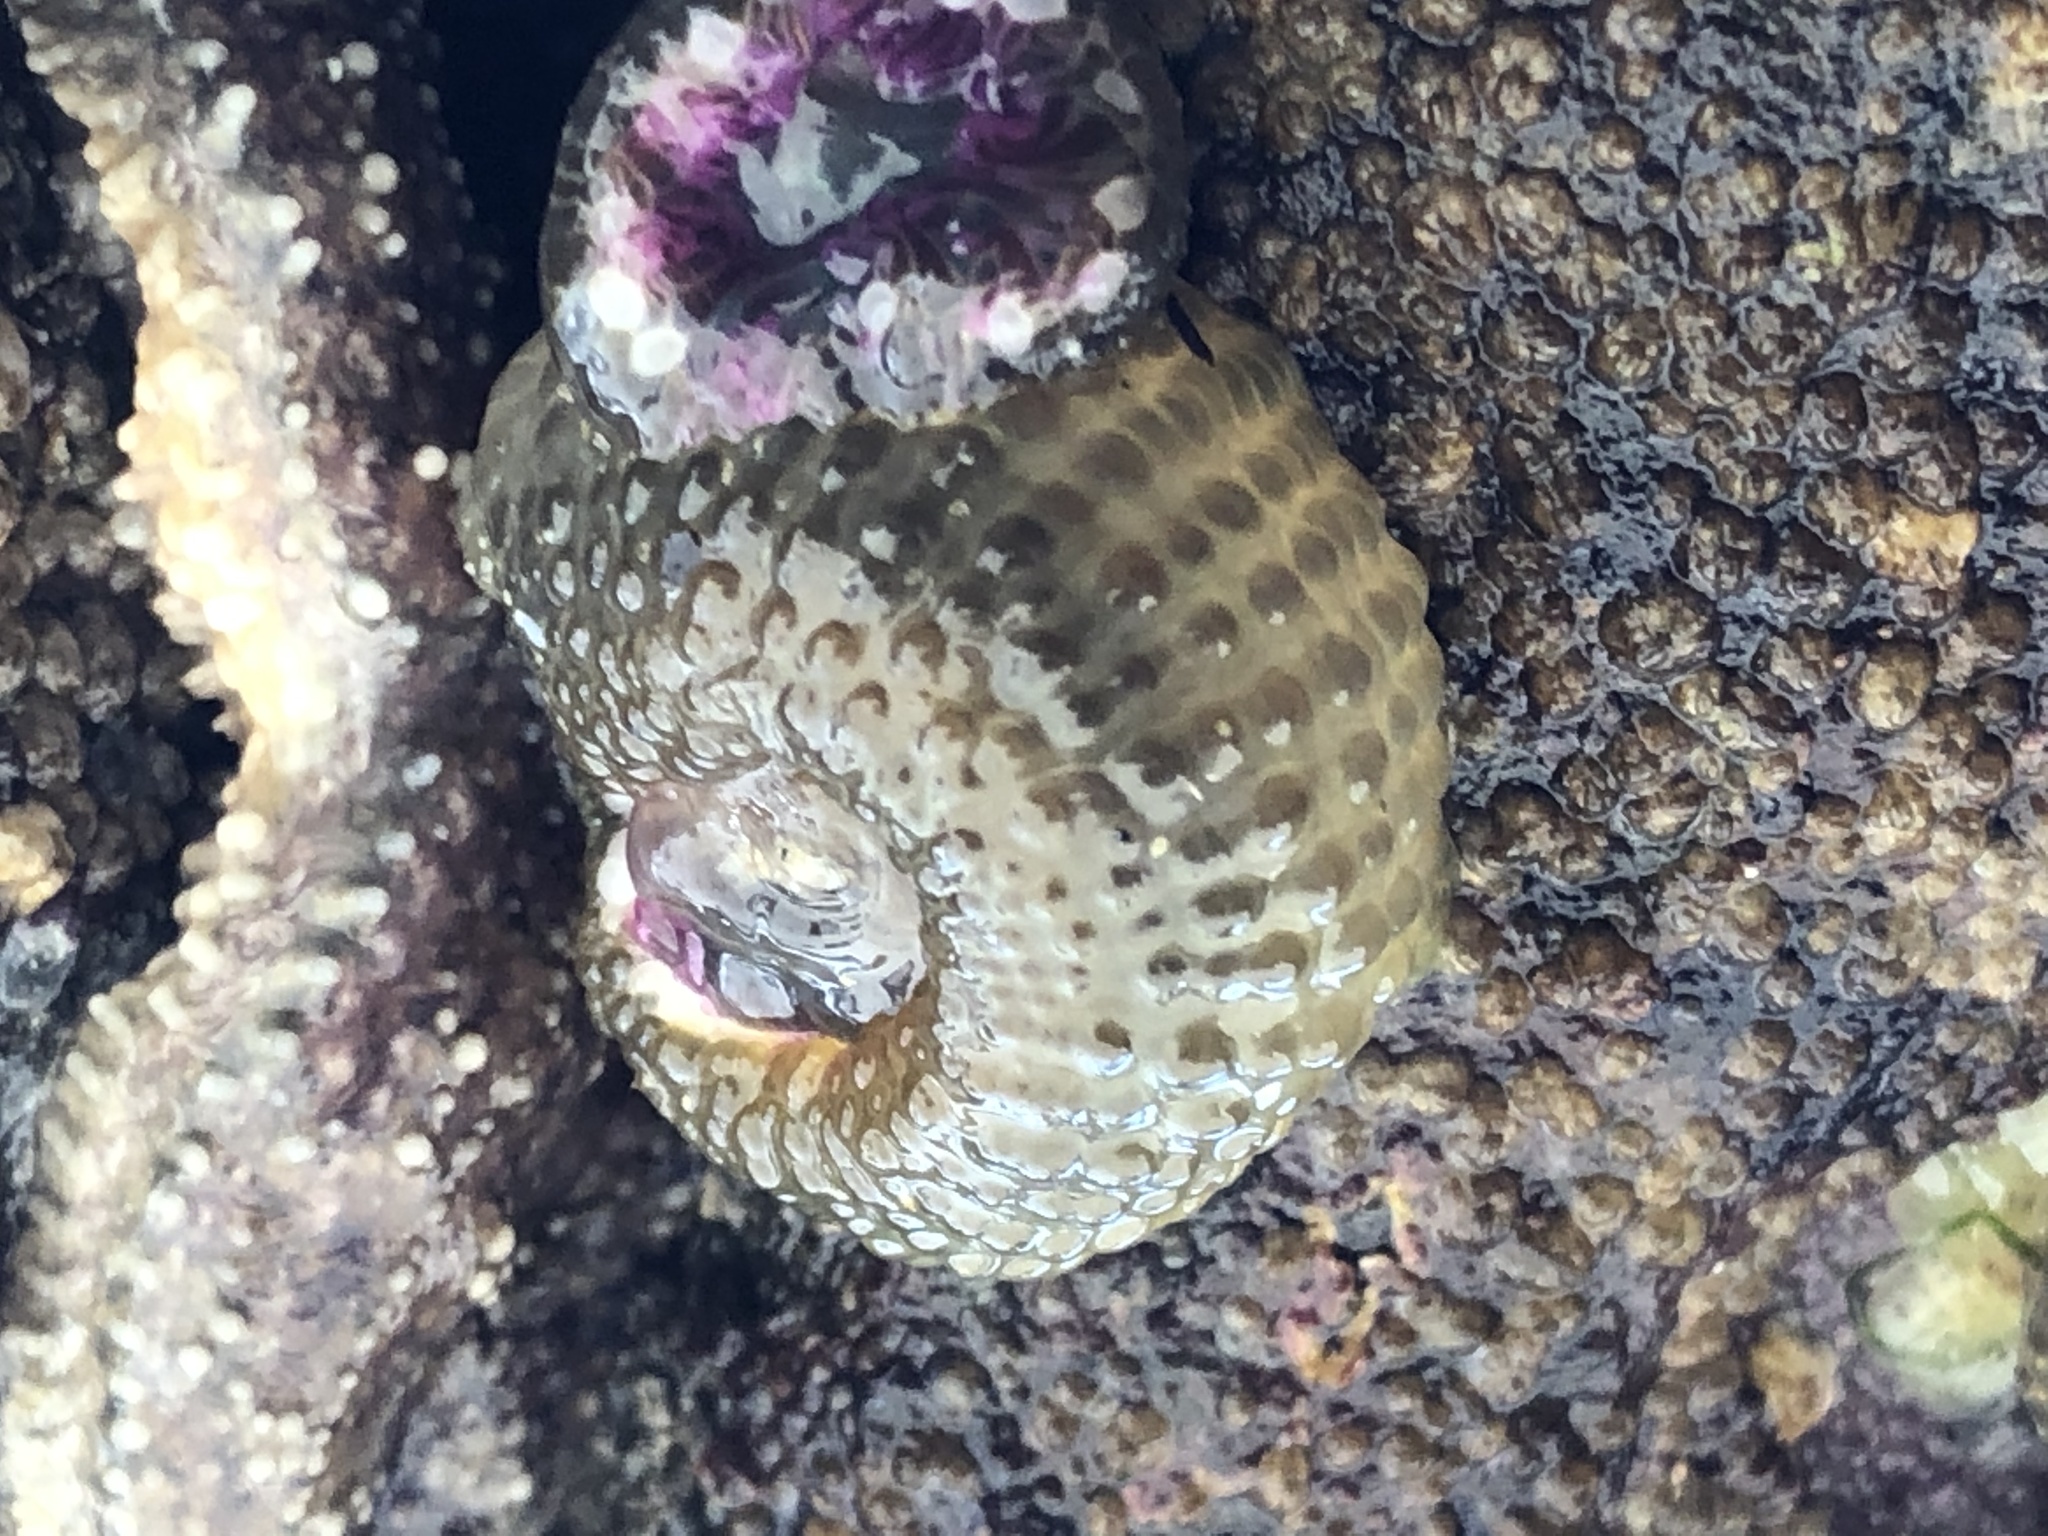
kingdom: Animalia
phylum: Cnidaria
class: Anthozoa
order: Actiniaria
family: Actiniidae
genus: Anthopleura
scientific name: Anthopleura elegantissima
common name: Clonal anemone
